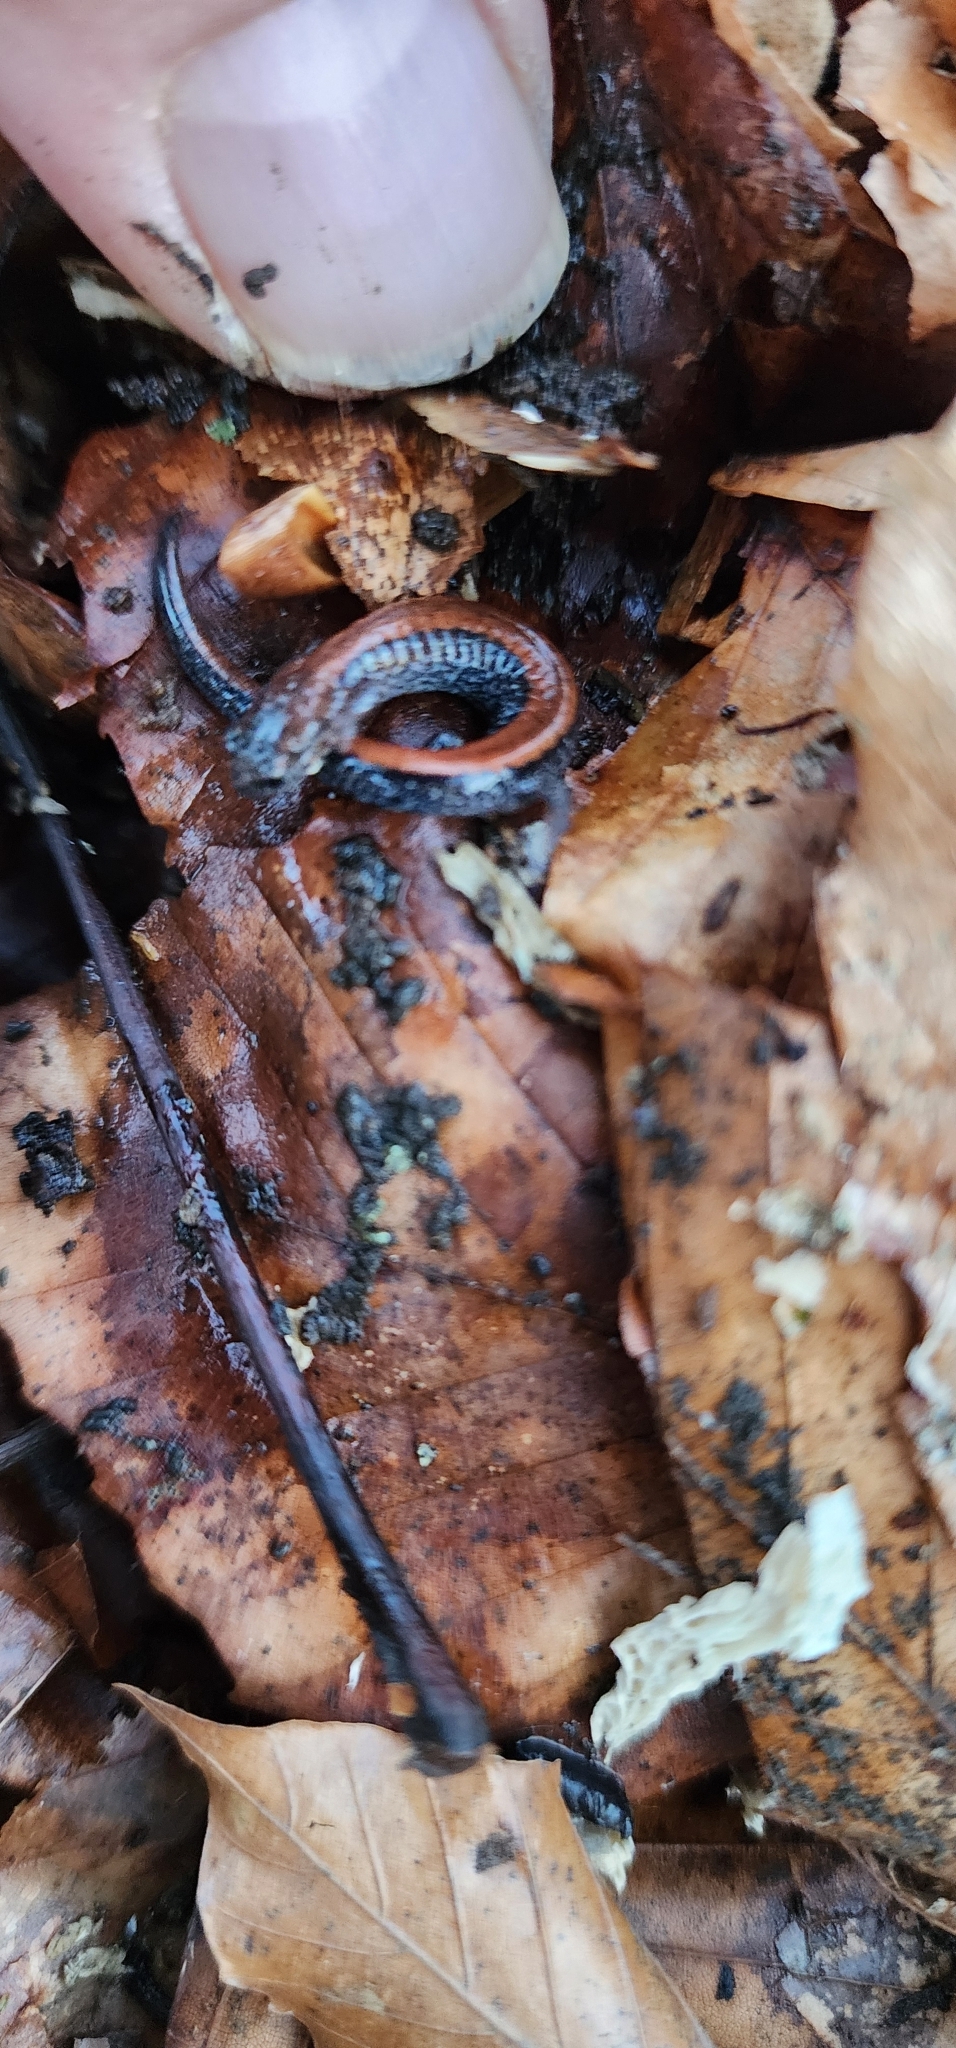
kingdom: Animalia
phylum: Chordata
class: Amphibia
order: Caudata
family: Plethodontidae
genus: Plethodon
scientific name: Plethodon cinereus
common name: Redback salamander
